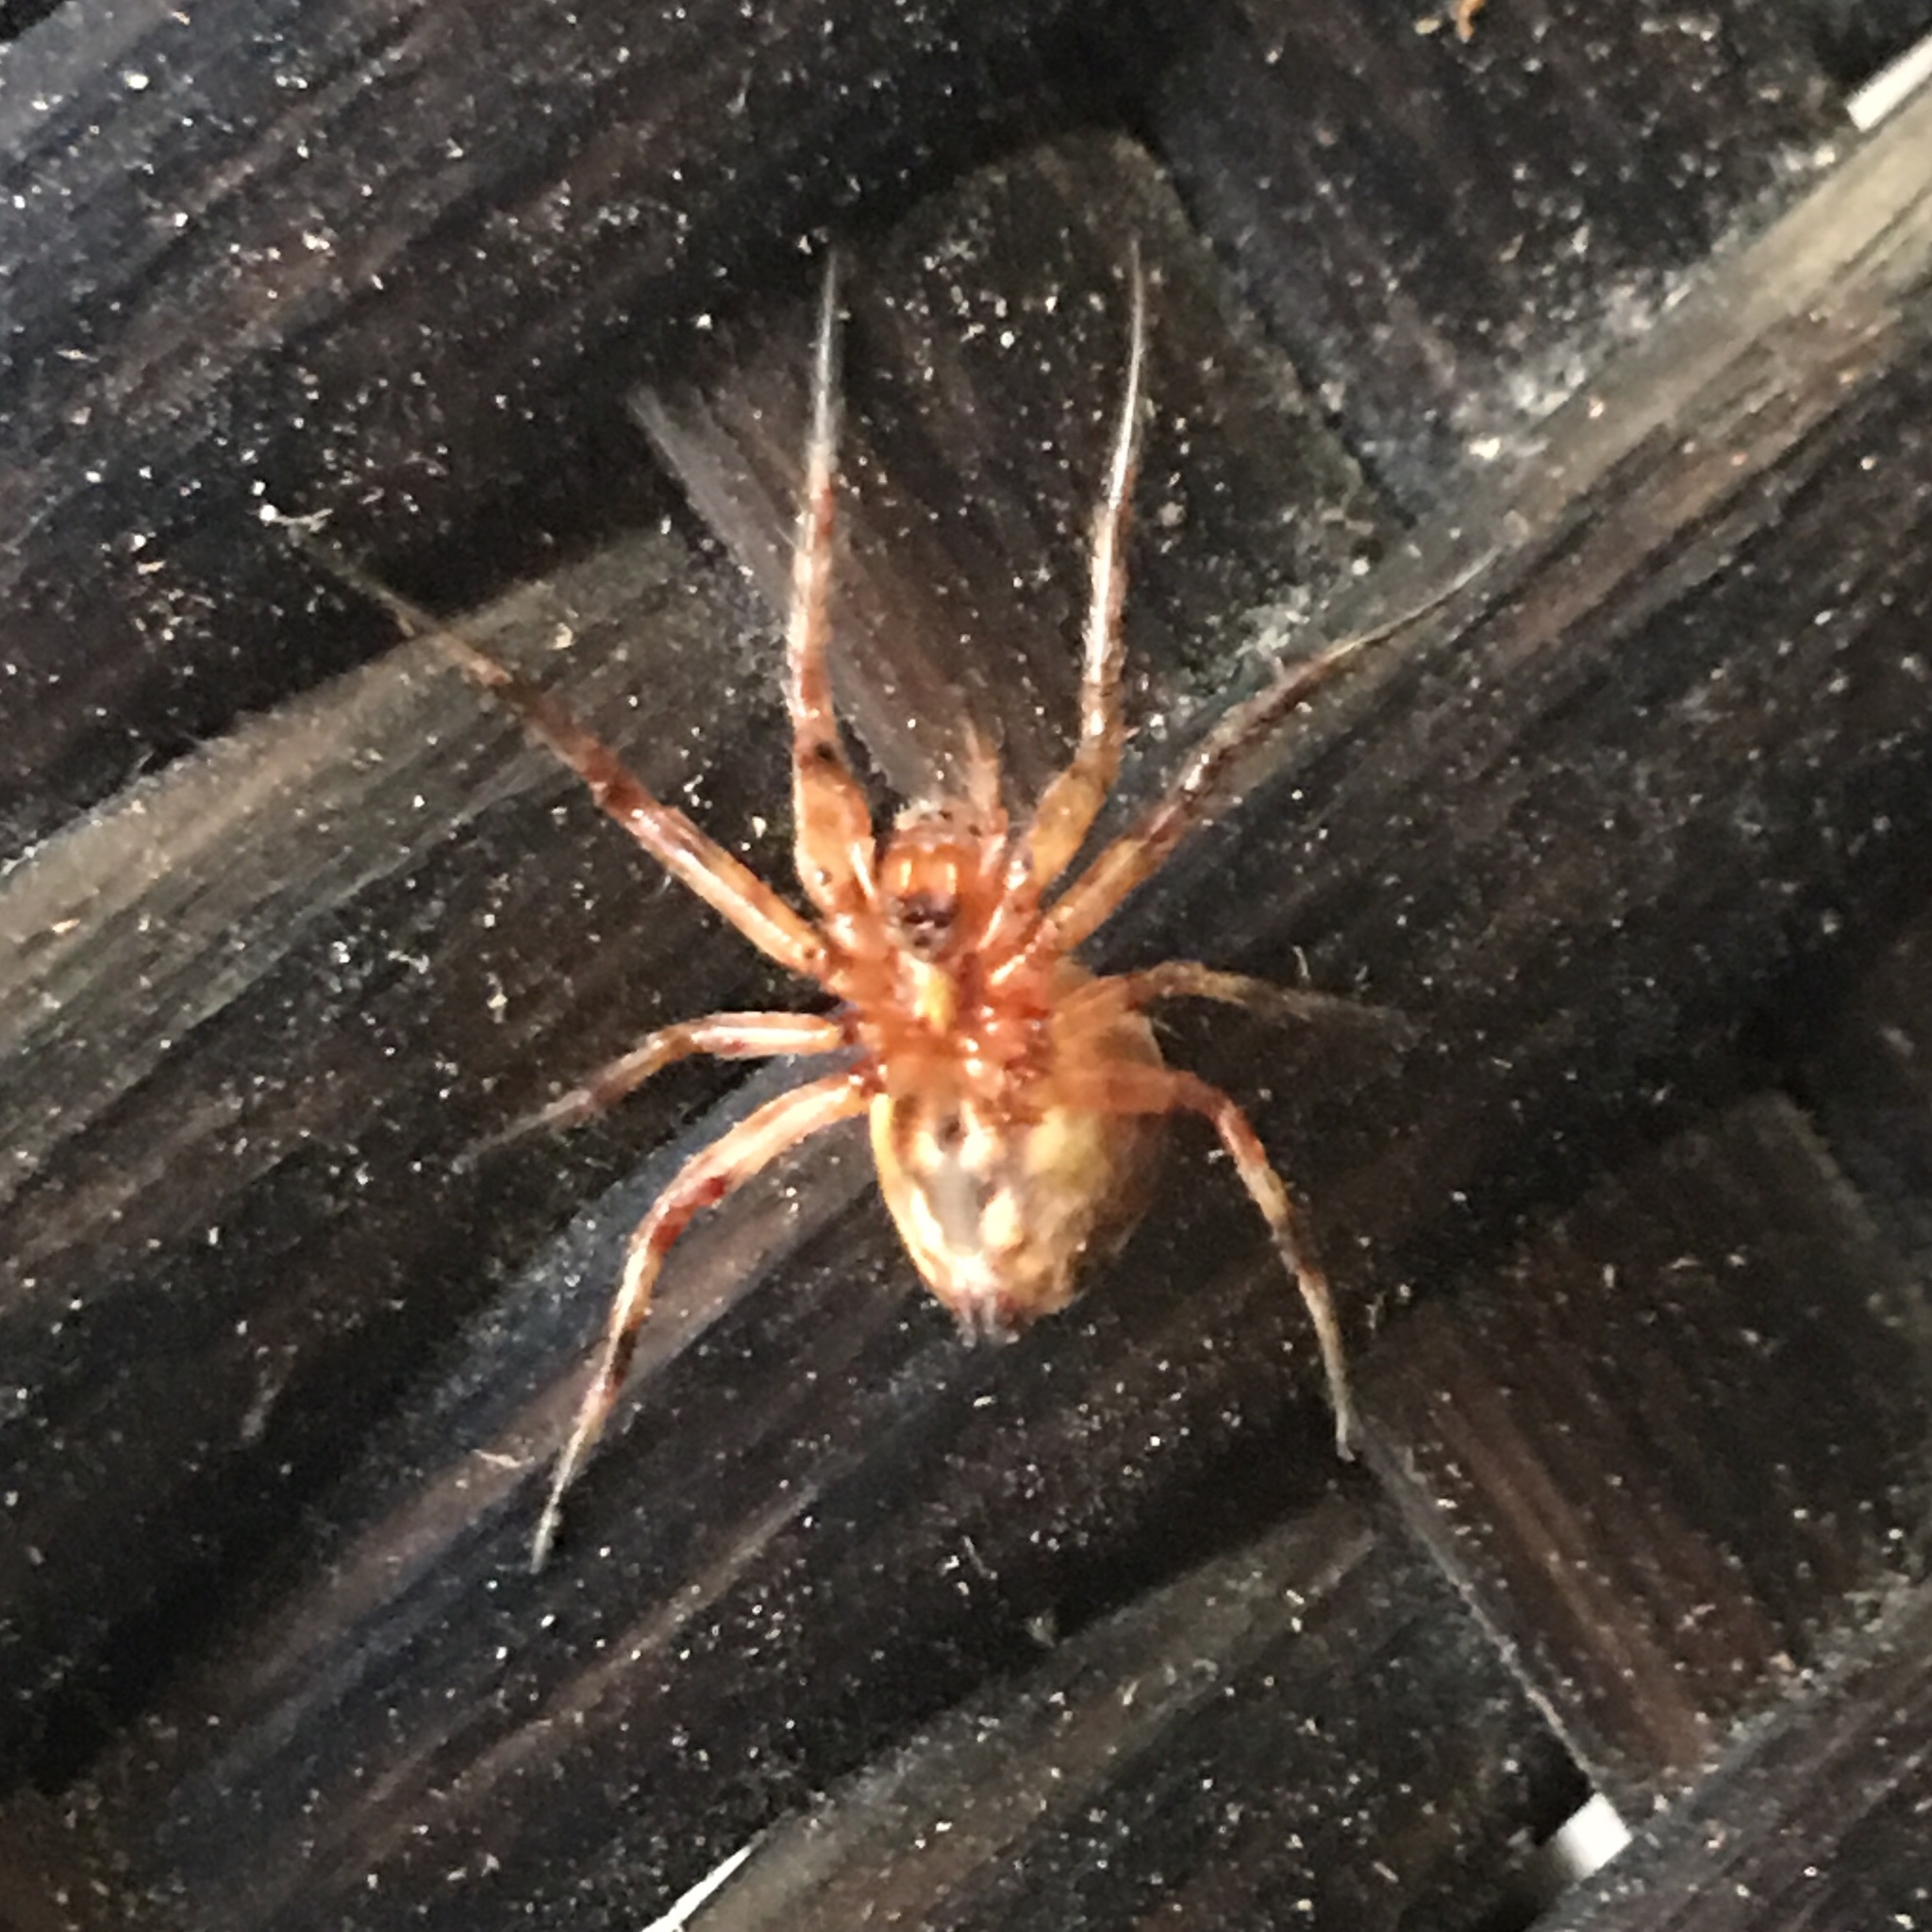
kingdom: Animalia
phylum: Arthropoda
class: Arachnida
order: Araneae
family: Araneidae
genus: Neoscona
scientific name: Neoscona arabesca
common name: Orb weavers
